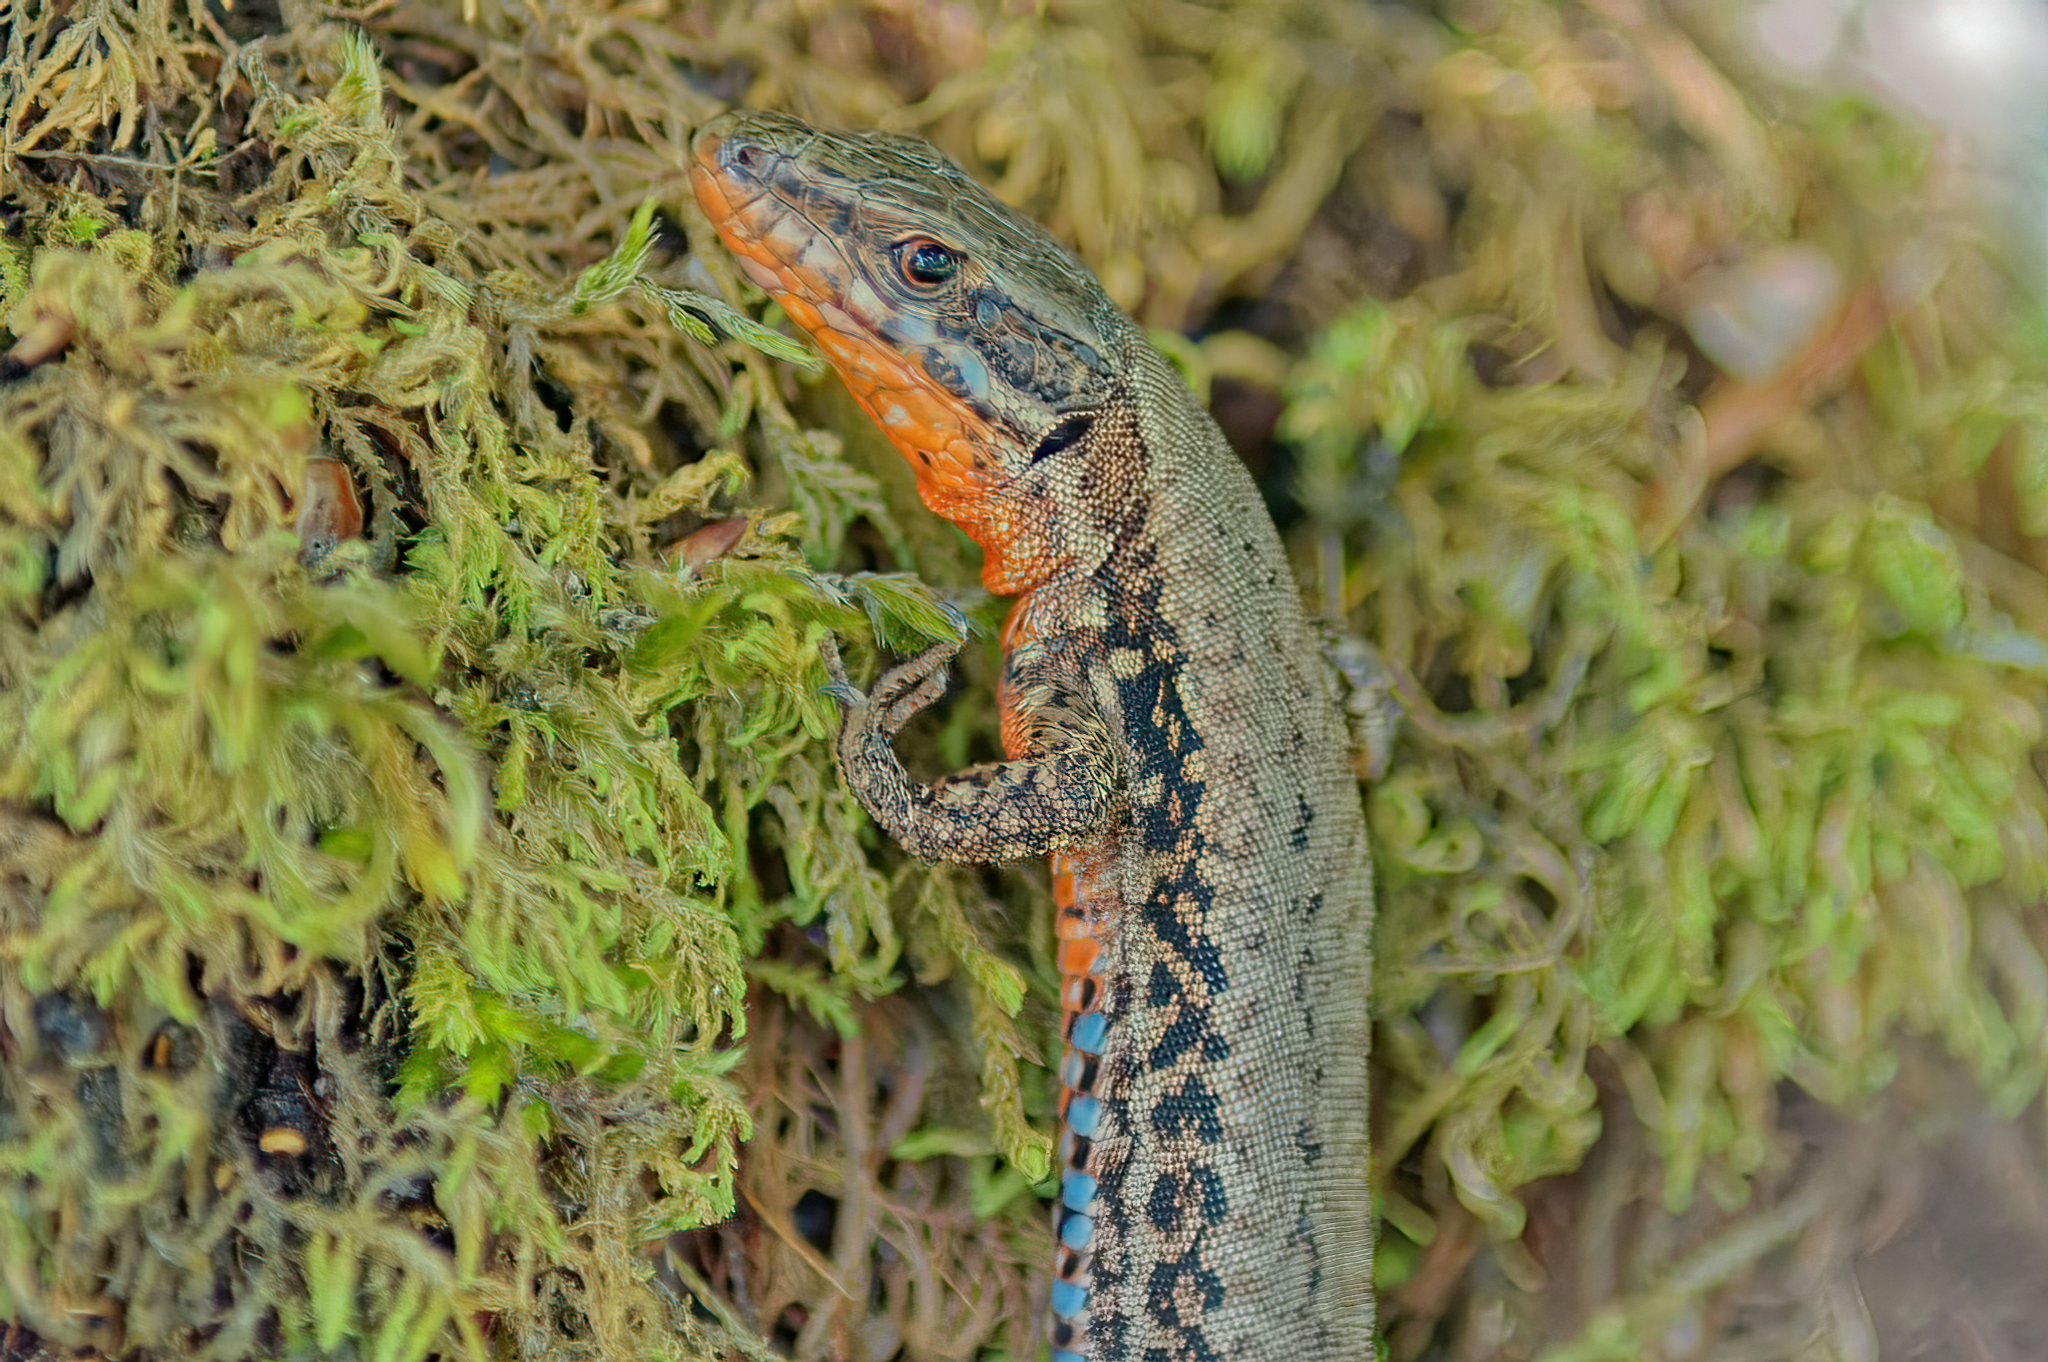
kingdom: Animalia
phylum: Chordata
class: Squamata
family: Lacertidae
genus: Podarcis
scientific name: Podarcis muralis
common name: Common wall lizard
